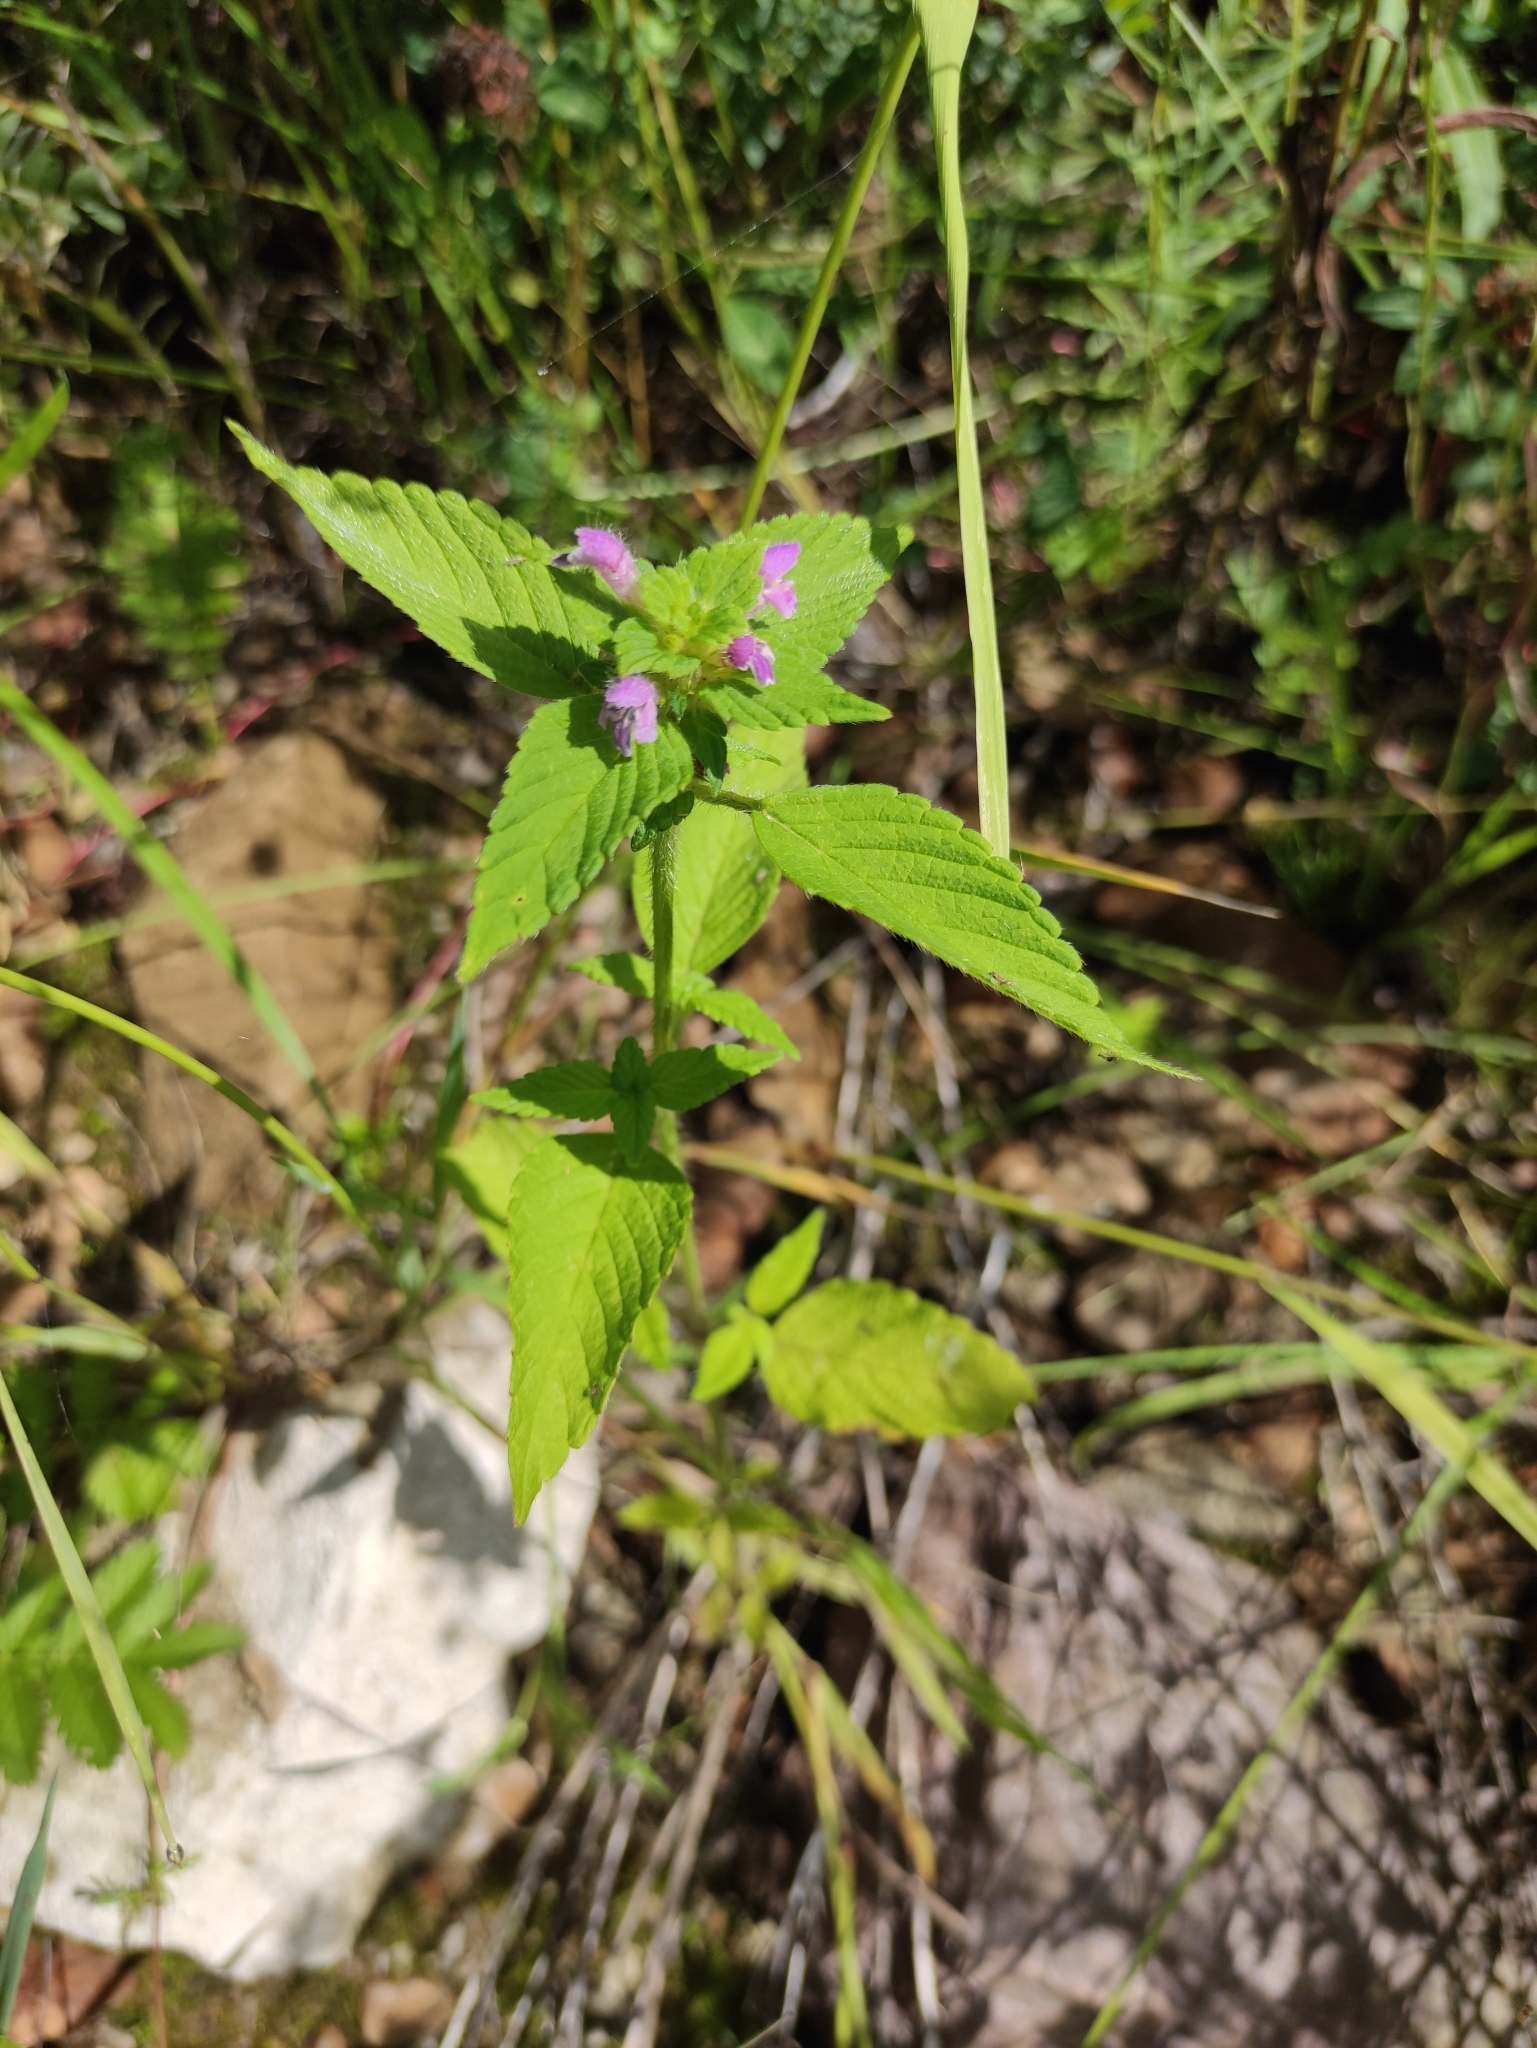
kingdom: Plantae
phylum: Tracheophyta
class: Magnoliopsida
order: Lamiales
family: Lamiaceae
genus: Galeopsis
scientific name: Galeopsis bifida
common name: Bifid hemp-nettle
